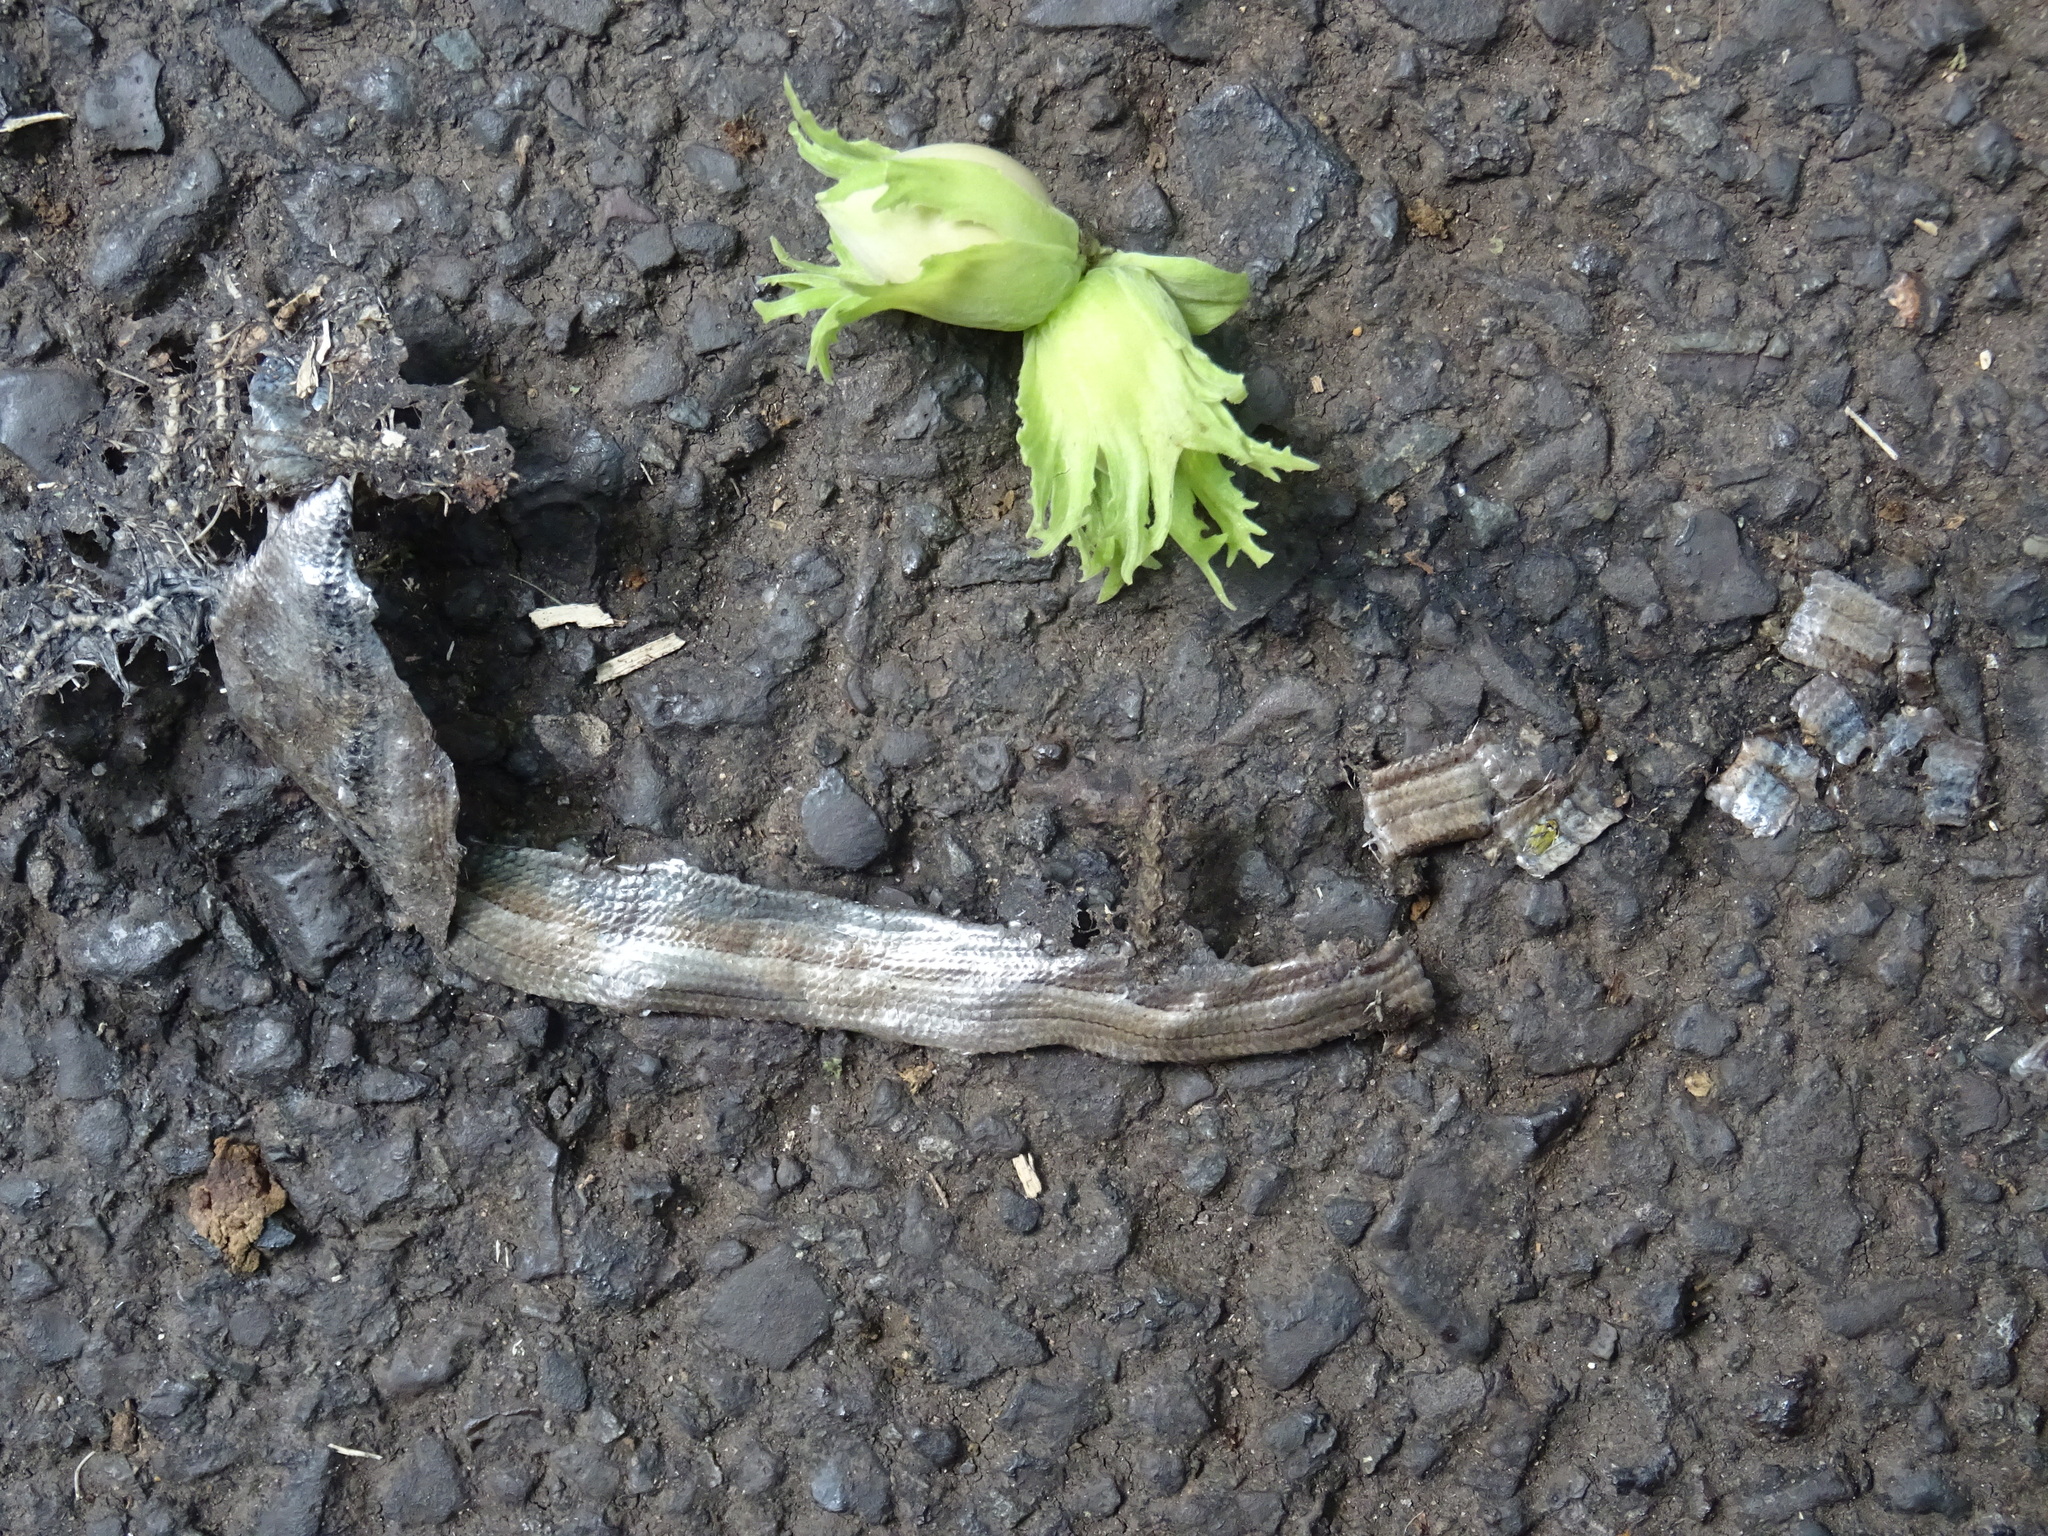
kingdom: Animalia
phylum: Chordata
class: Squamata
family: Anguidae
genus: Anguis
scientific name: Anguis fragilis
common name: Slow worm
